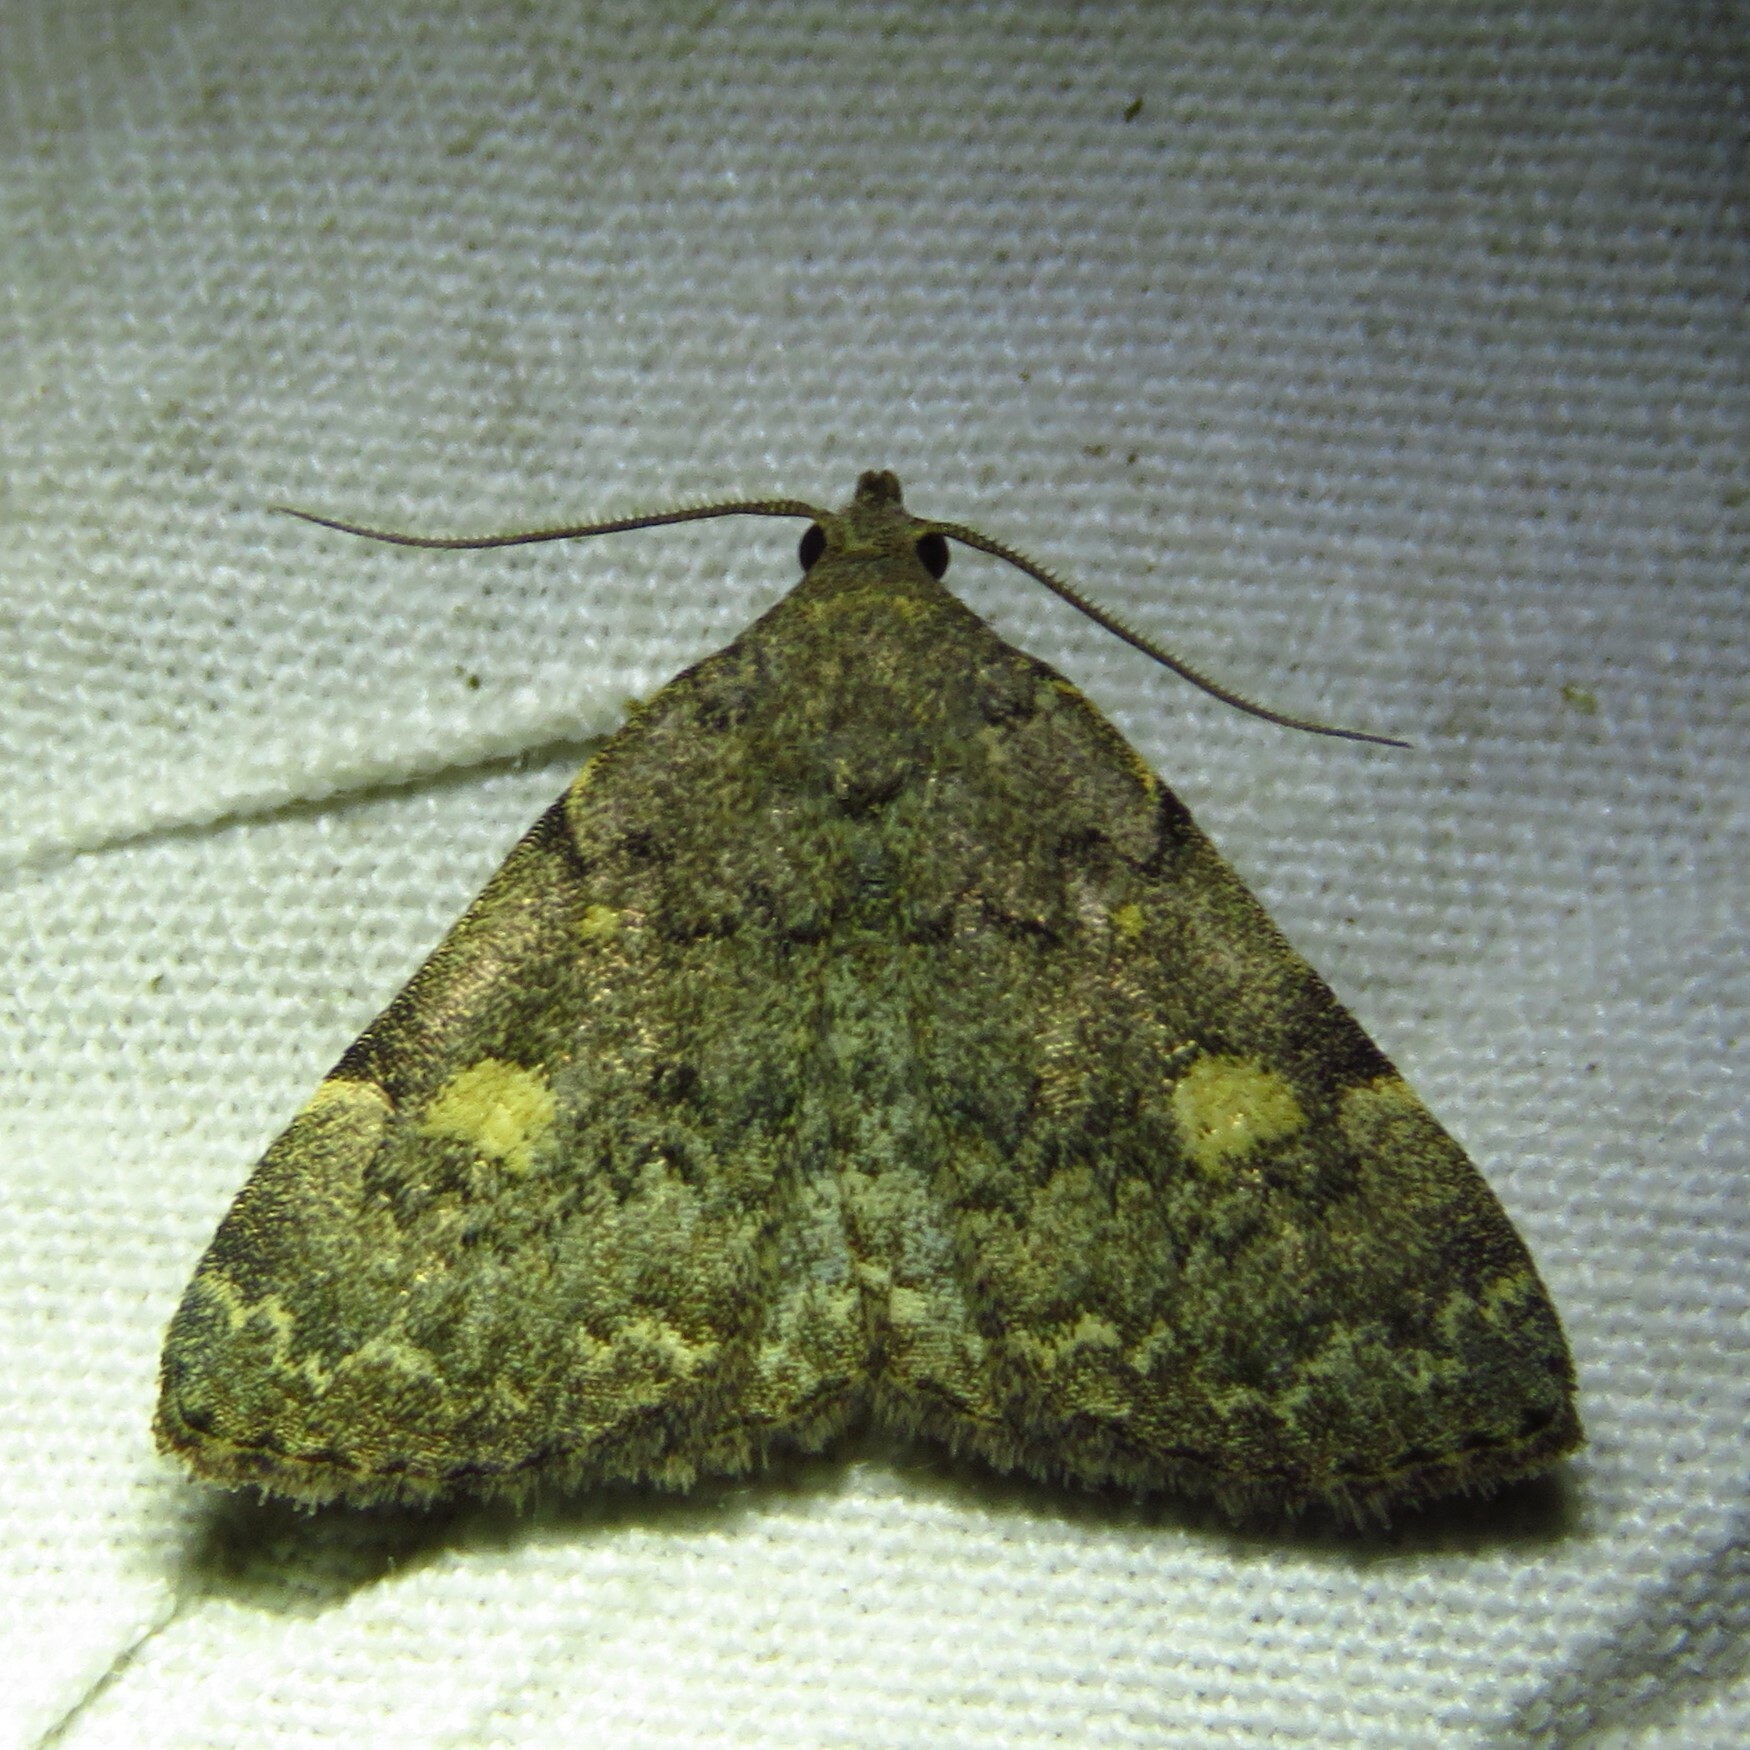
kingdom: Animalia
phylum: Arthropoda
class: Insecta
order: Lepidoptera
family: Erebidae
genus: Idia
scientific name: Idia aemula
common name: Common idia moth
